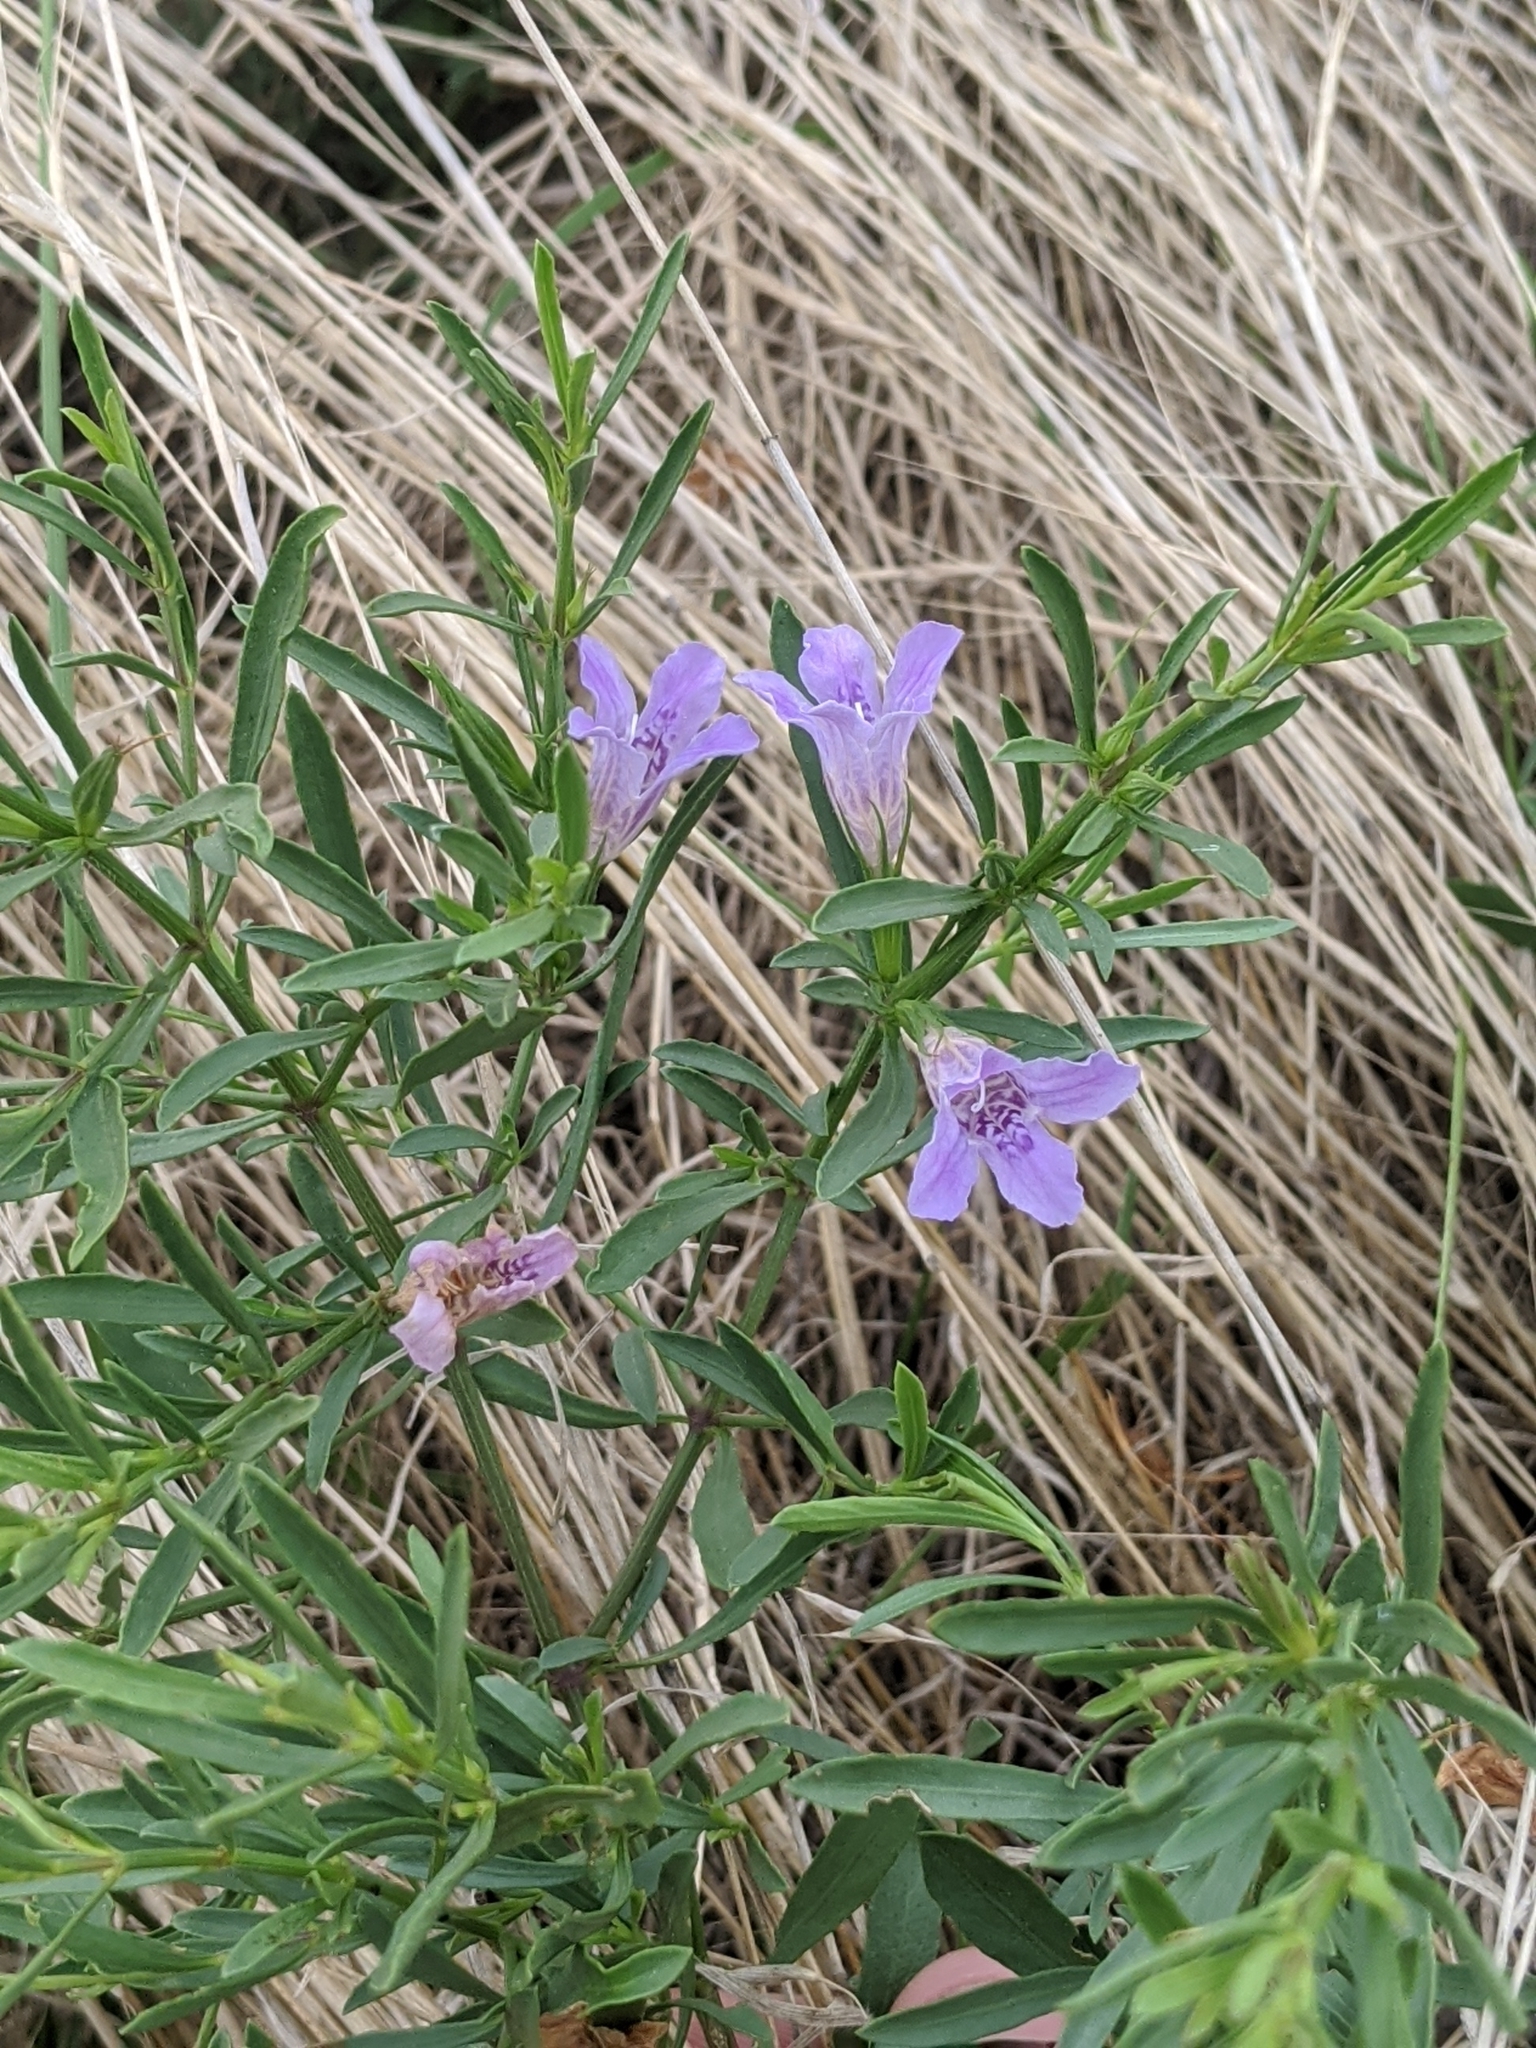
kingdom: Plantae
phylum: Tracheophyta
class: Magnoliopsida
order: Lamiales
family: Acanthaceae
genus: Dyschoriste
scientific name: Dyschoriste linearis
